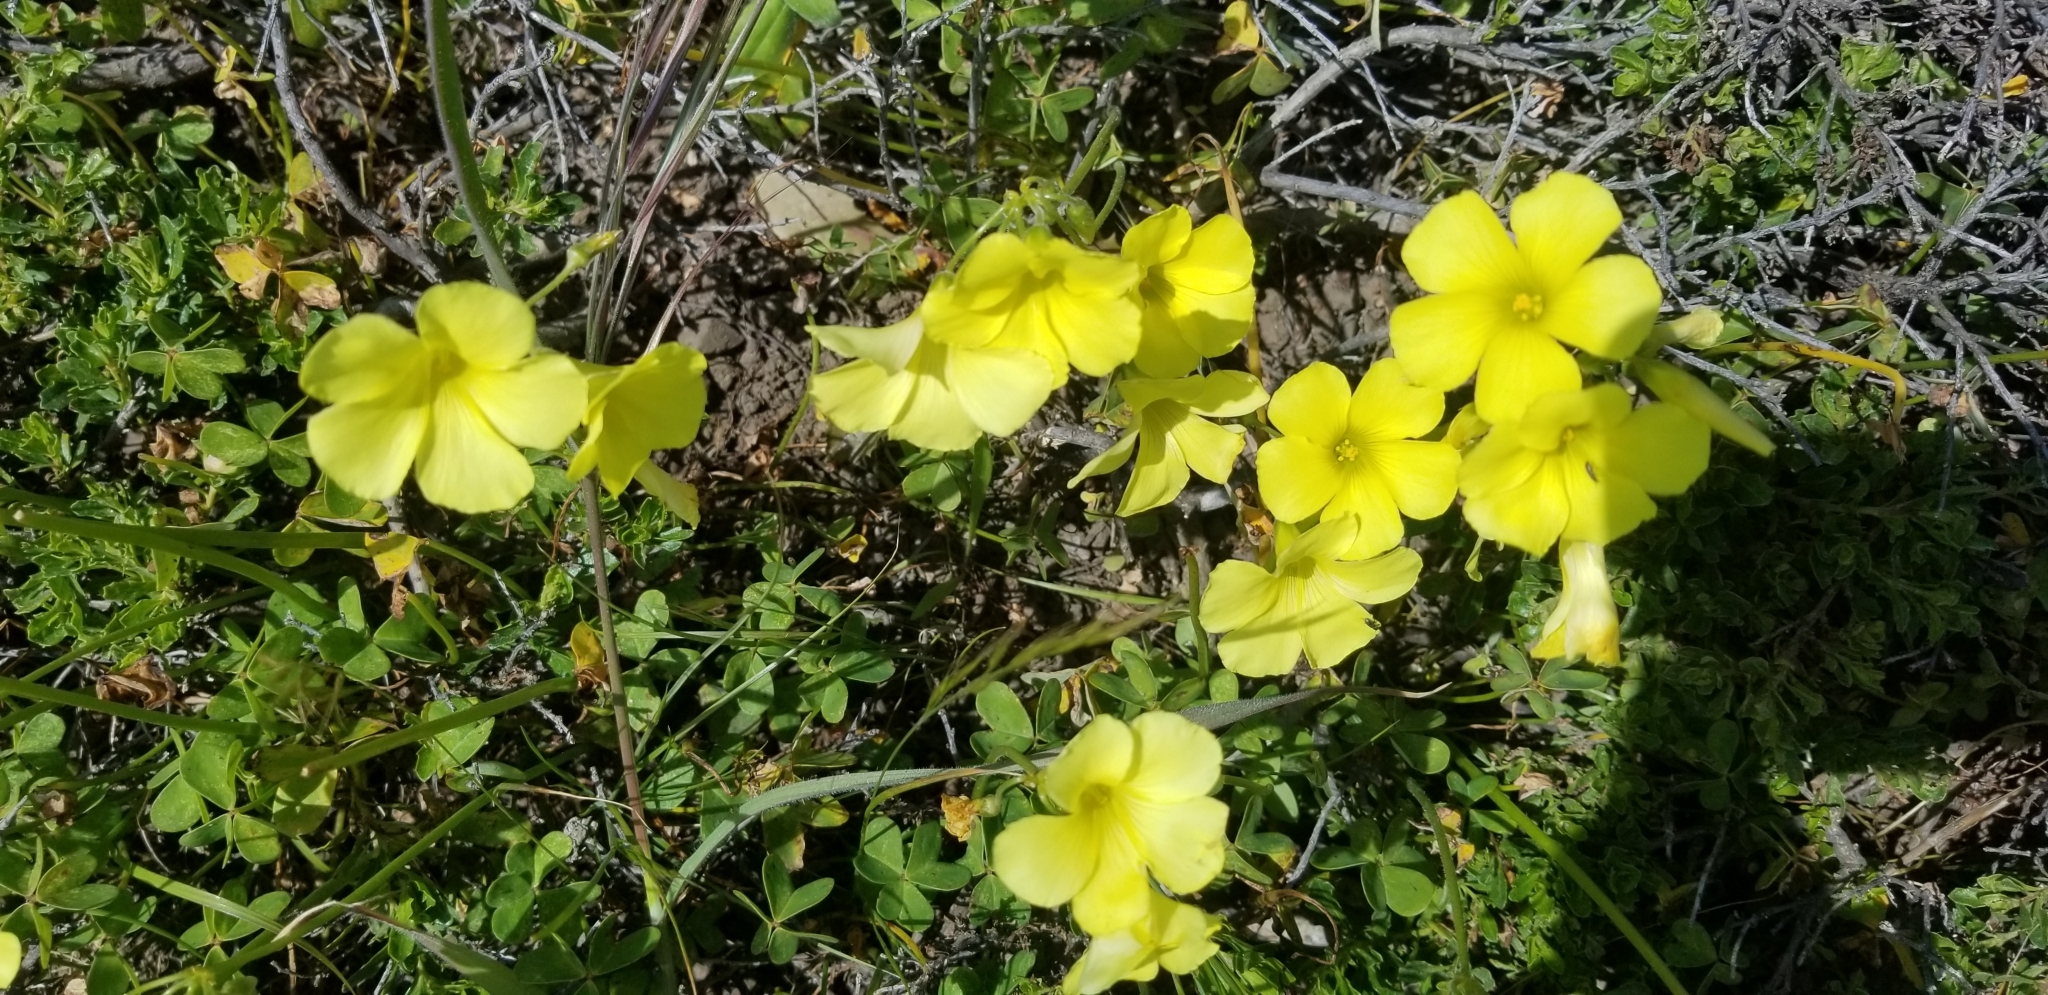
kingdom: Plantae
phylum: Tracheophyta
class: Magnoliopsida
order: Oxalidales
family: Oxalidaceae
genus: Oxalis
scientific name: Oxalis pes-caprae
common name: Bermuda-buttercup
